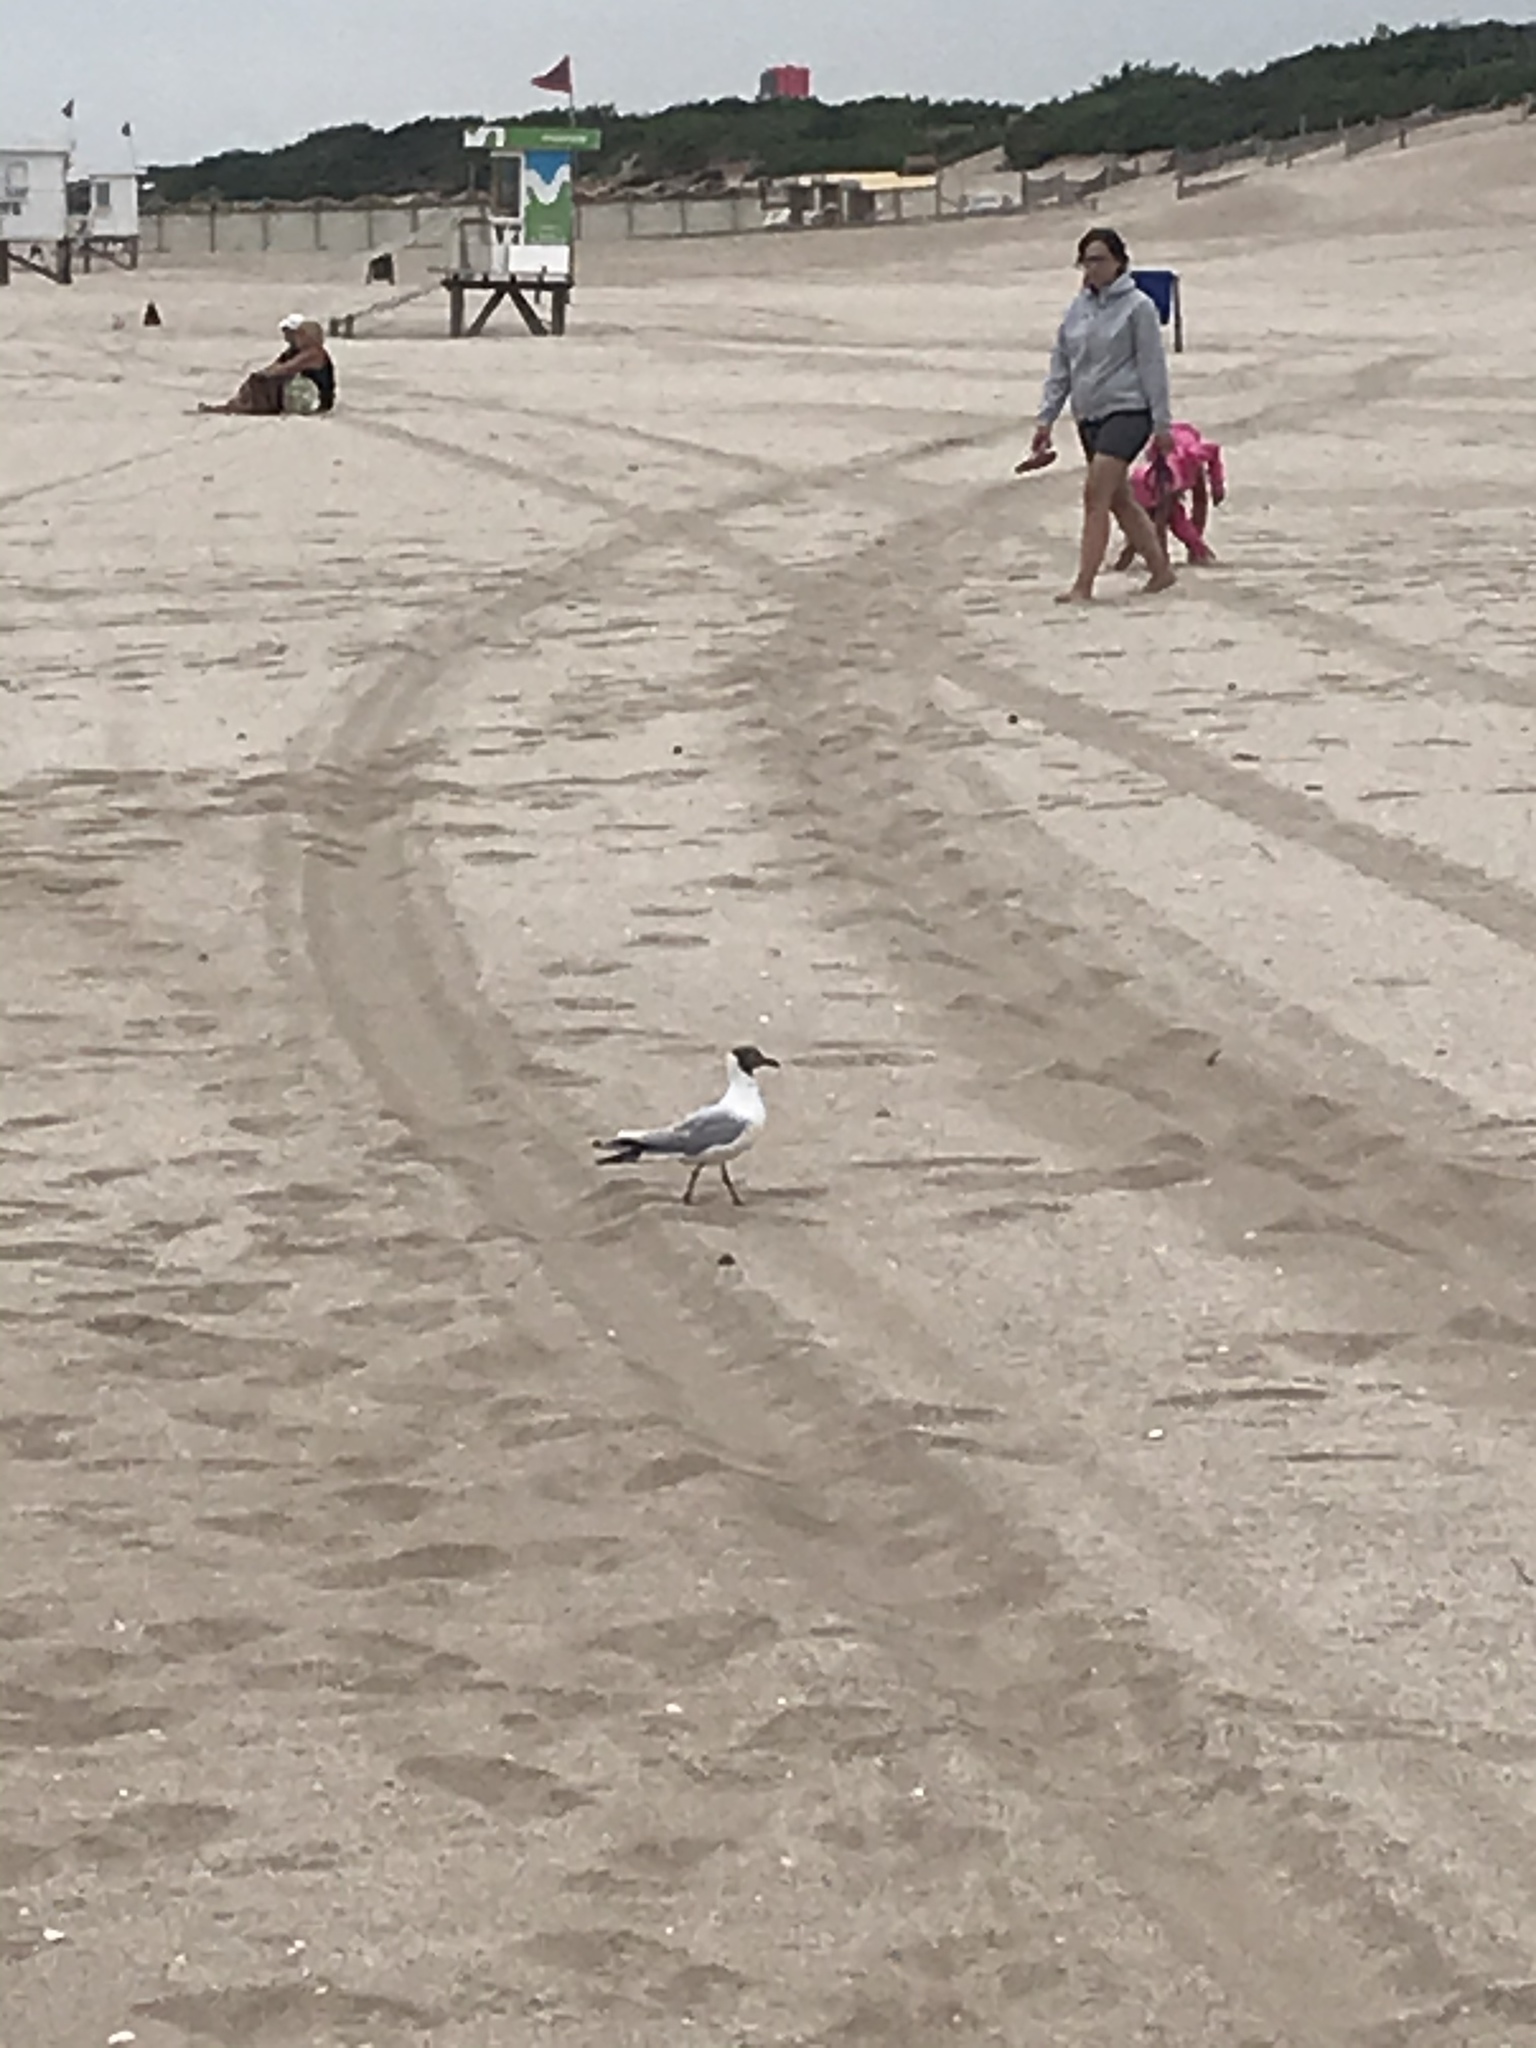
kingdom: Animalia
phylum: Chordata
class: Aves
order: Charadriiformes
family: Laridae
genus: Chroicocephalus
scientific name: Chroicocephalus maculipennis
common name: Brown-hooded gull
